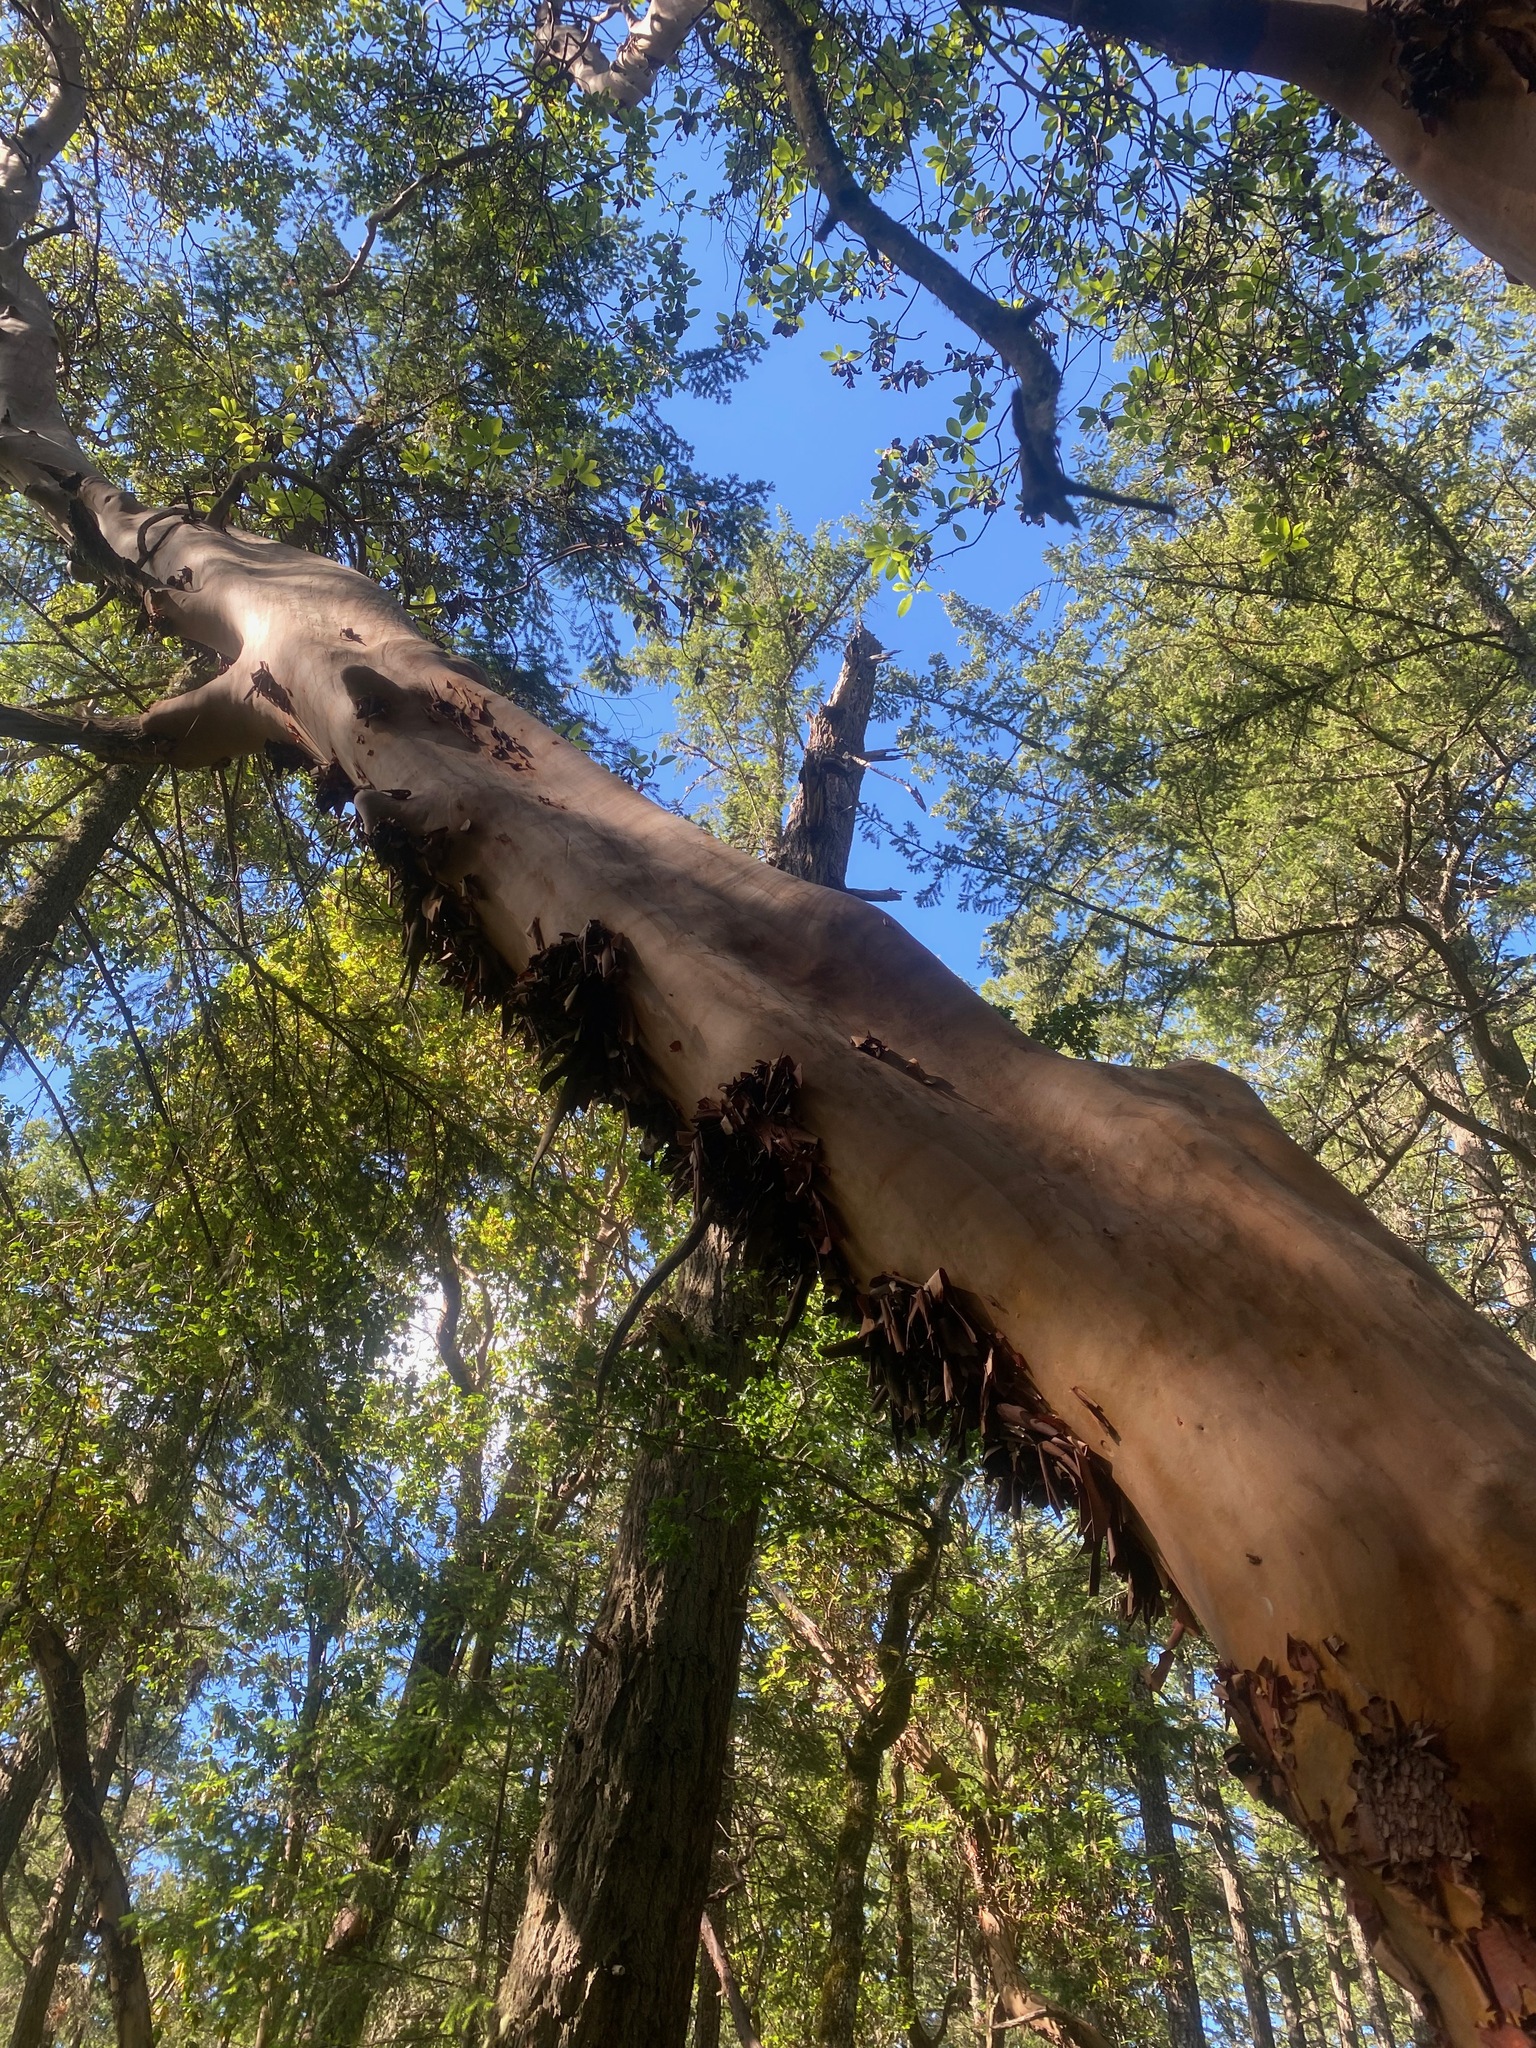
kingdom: Plantae
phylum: Tracheophyta
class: Magnoliopsida
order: Ericales
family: Ericaceae
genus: Arbutus
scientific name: Arbutus menziesii
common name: Pacific madrone
